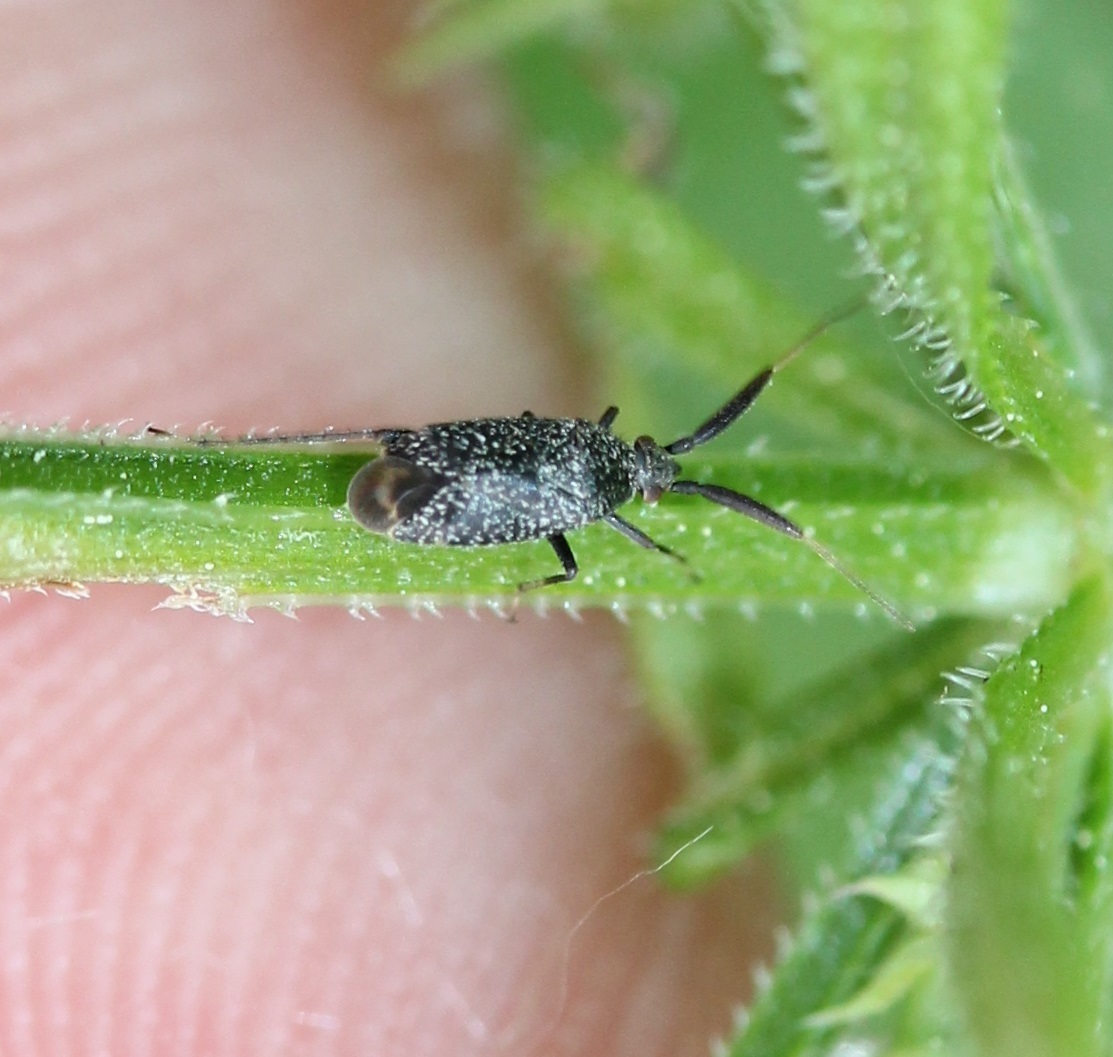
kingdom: Animalia
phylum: Arthropoda
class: Insecta
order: Hemiptera
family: Miridae
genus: Mesopsallus
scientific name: Mesopsallus
